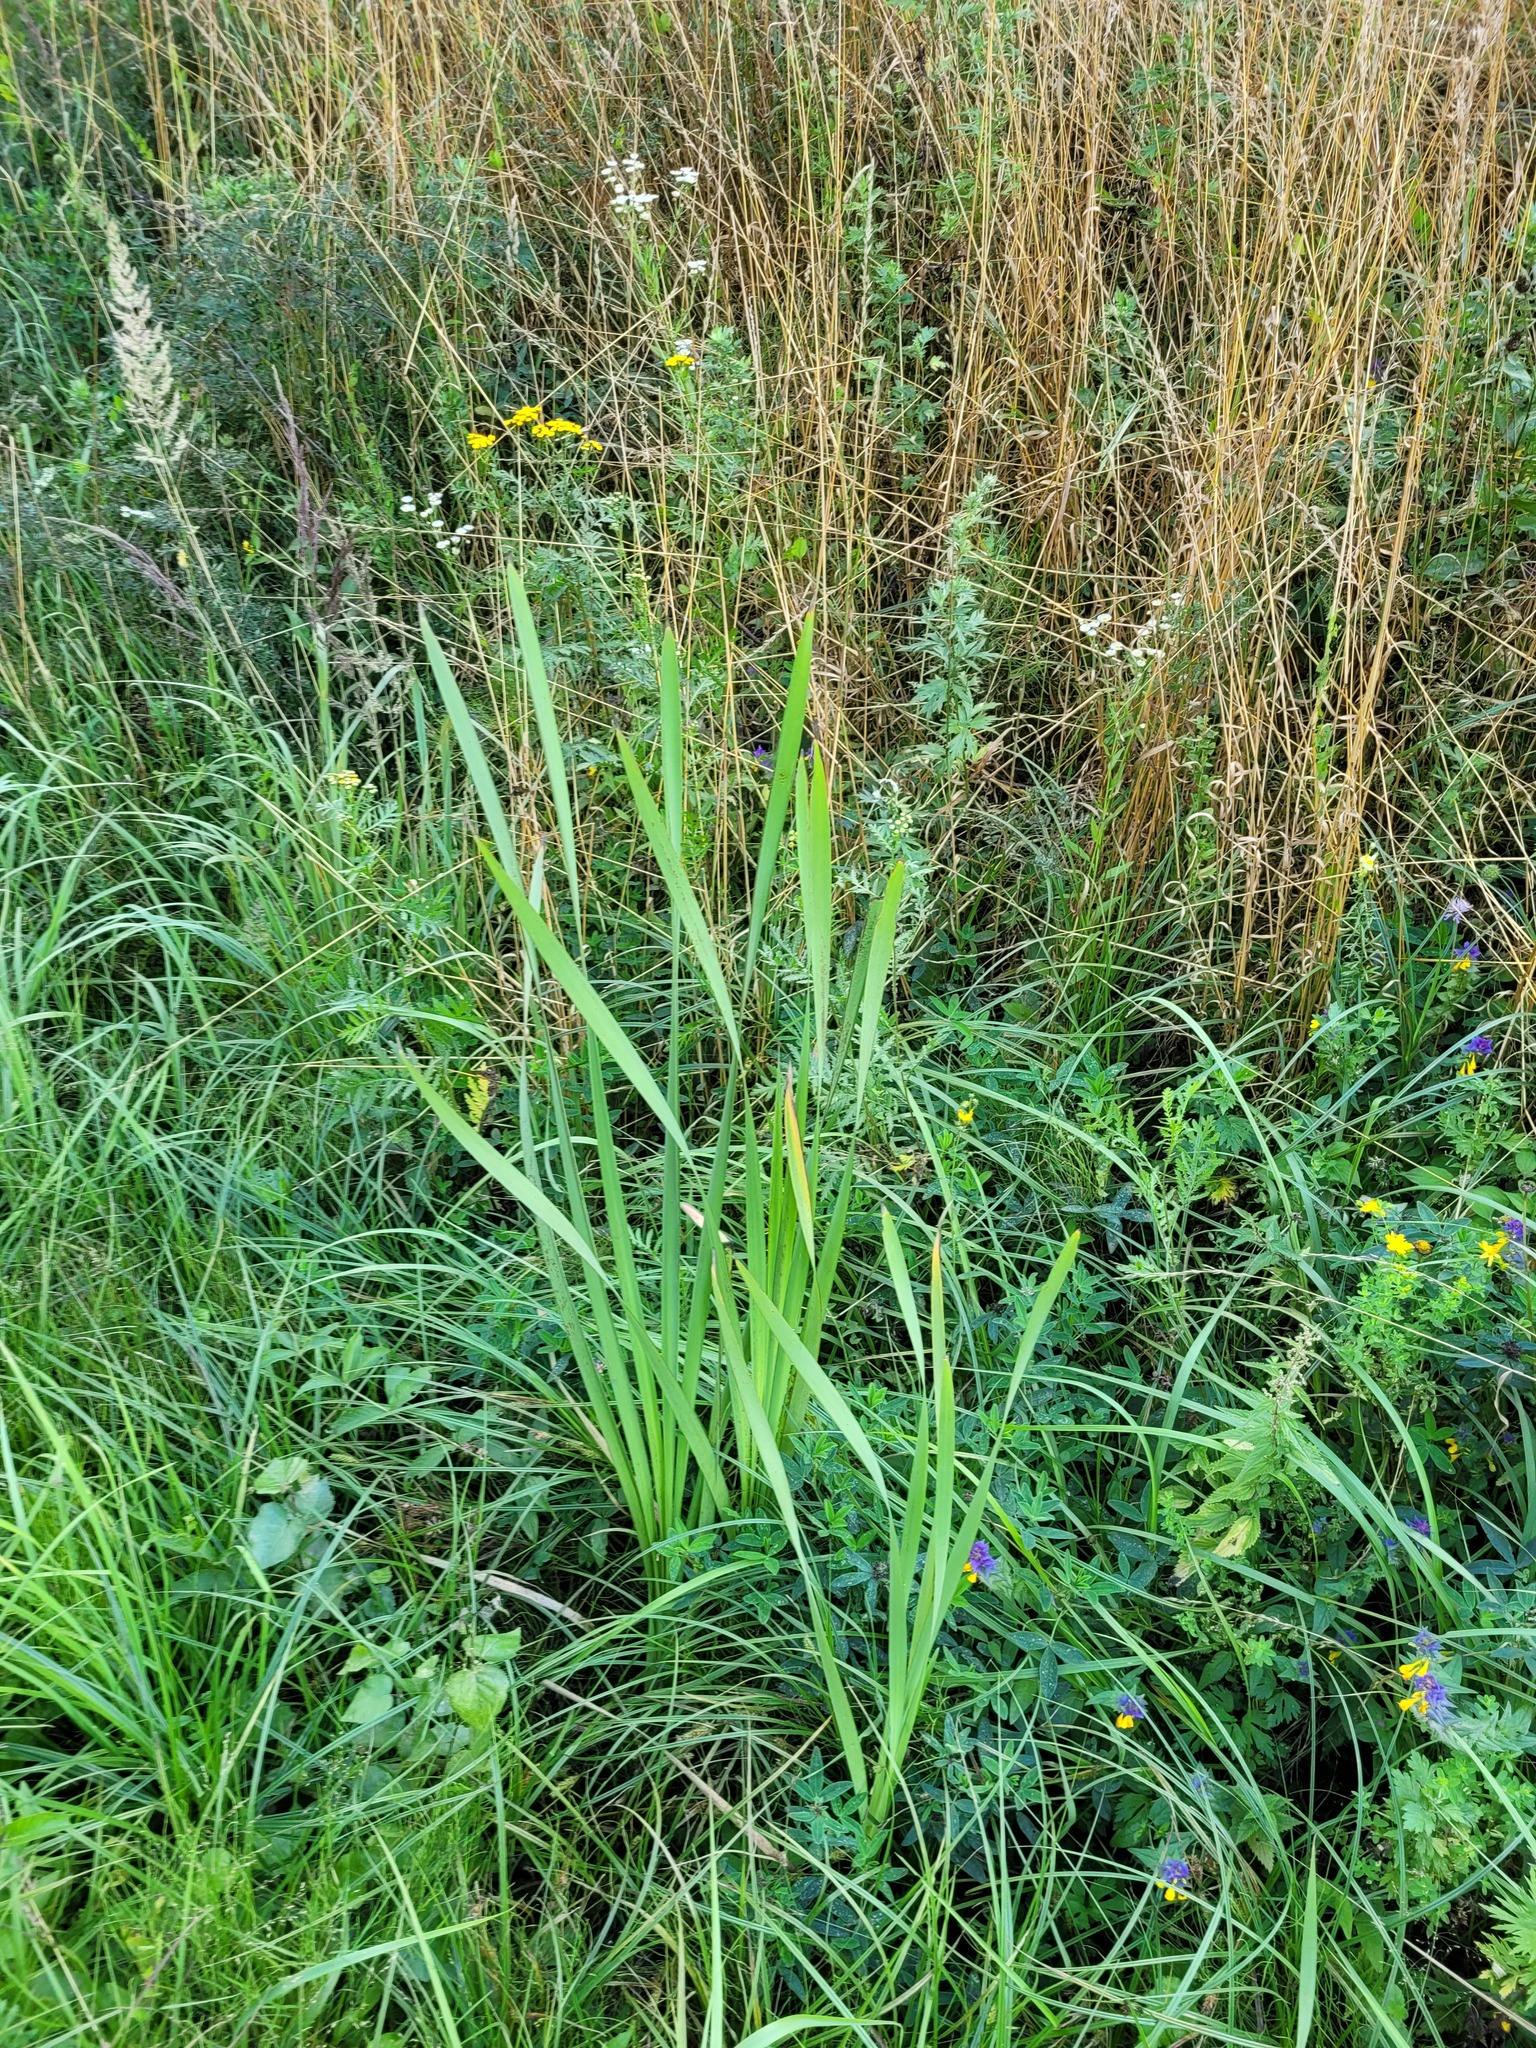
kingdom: Plantae
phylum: Tracheophyta
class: Liliopsida
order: Poales
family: Typhaceae
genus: Typha
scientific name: Typha latifolia
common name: Broadleaf cattail
